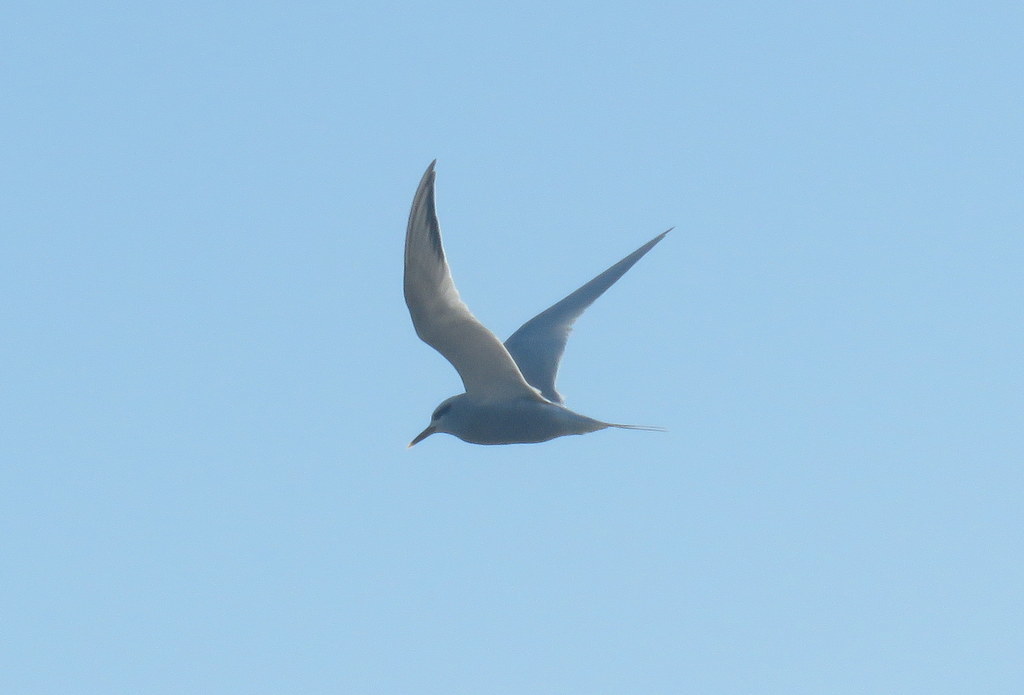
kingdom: Animalia
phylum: Chordata
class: Aves
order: Charadriiformes
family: Laridae
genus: Sterna
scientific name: Sterna trudeaui
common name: Snowy-crowned tern
